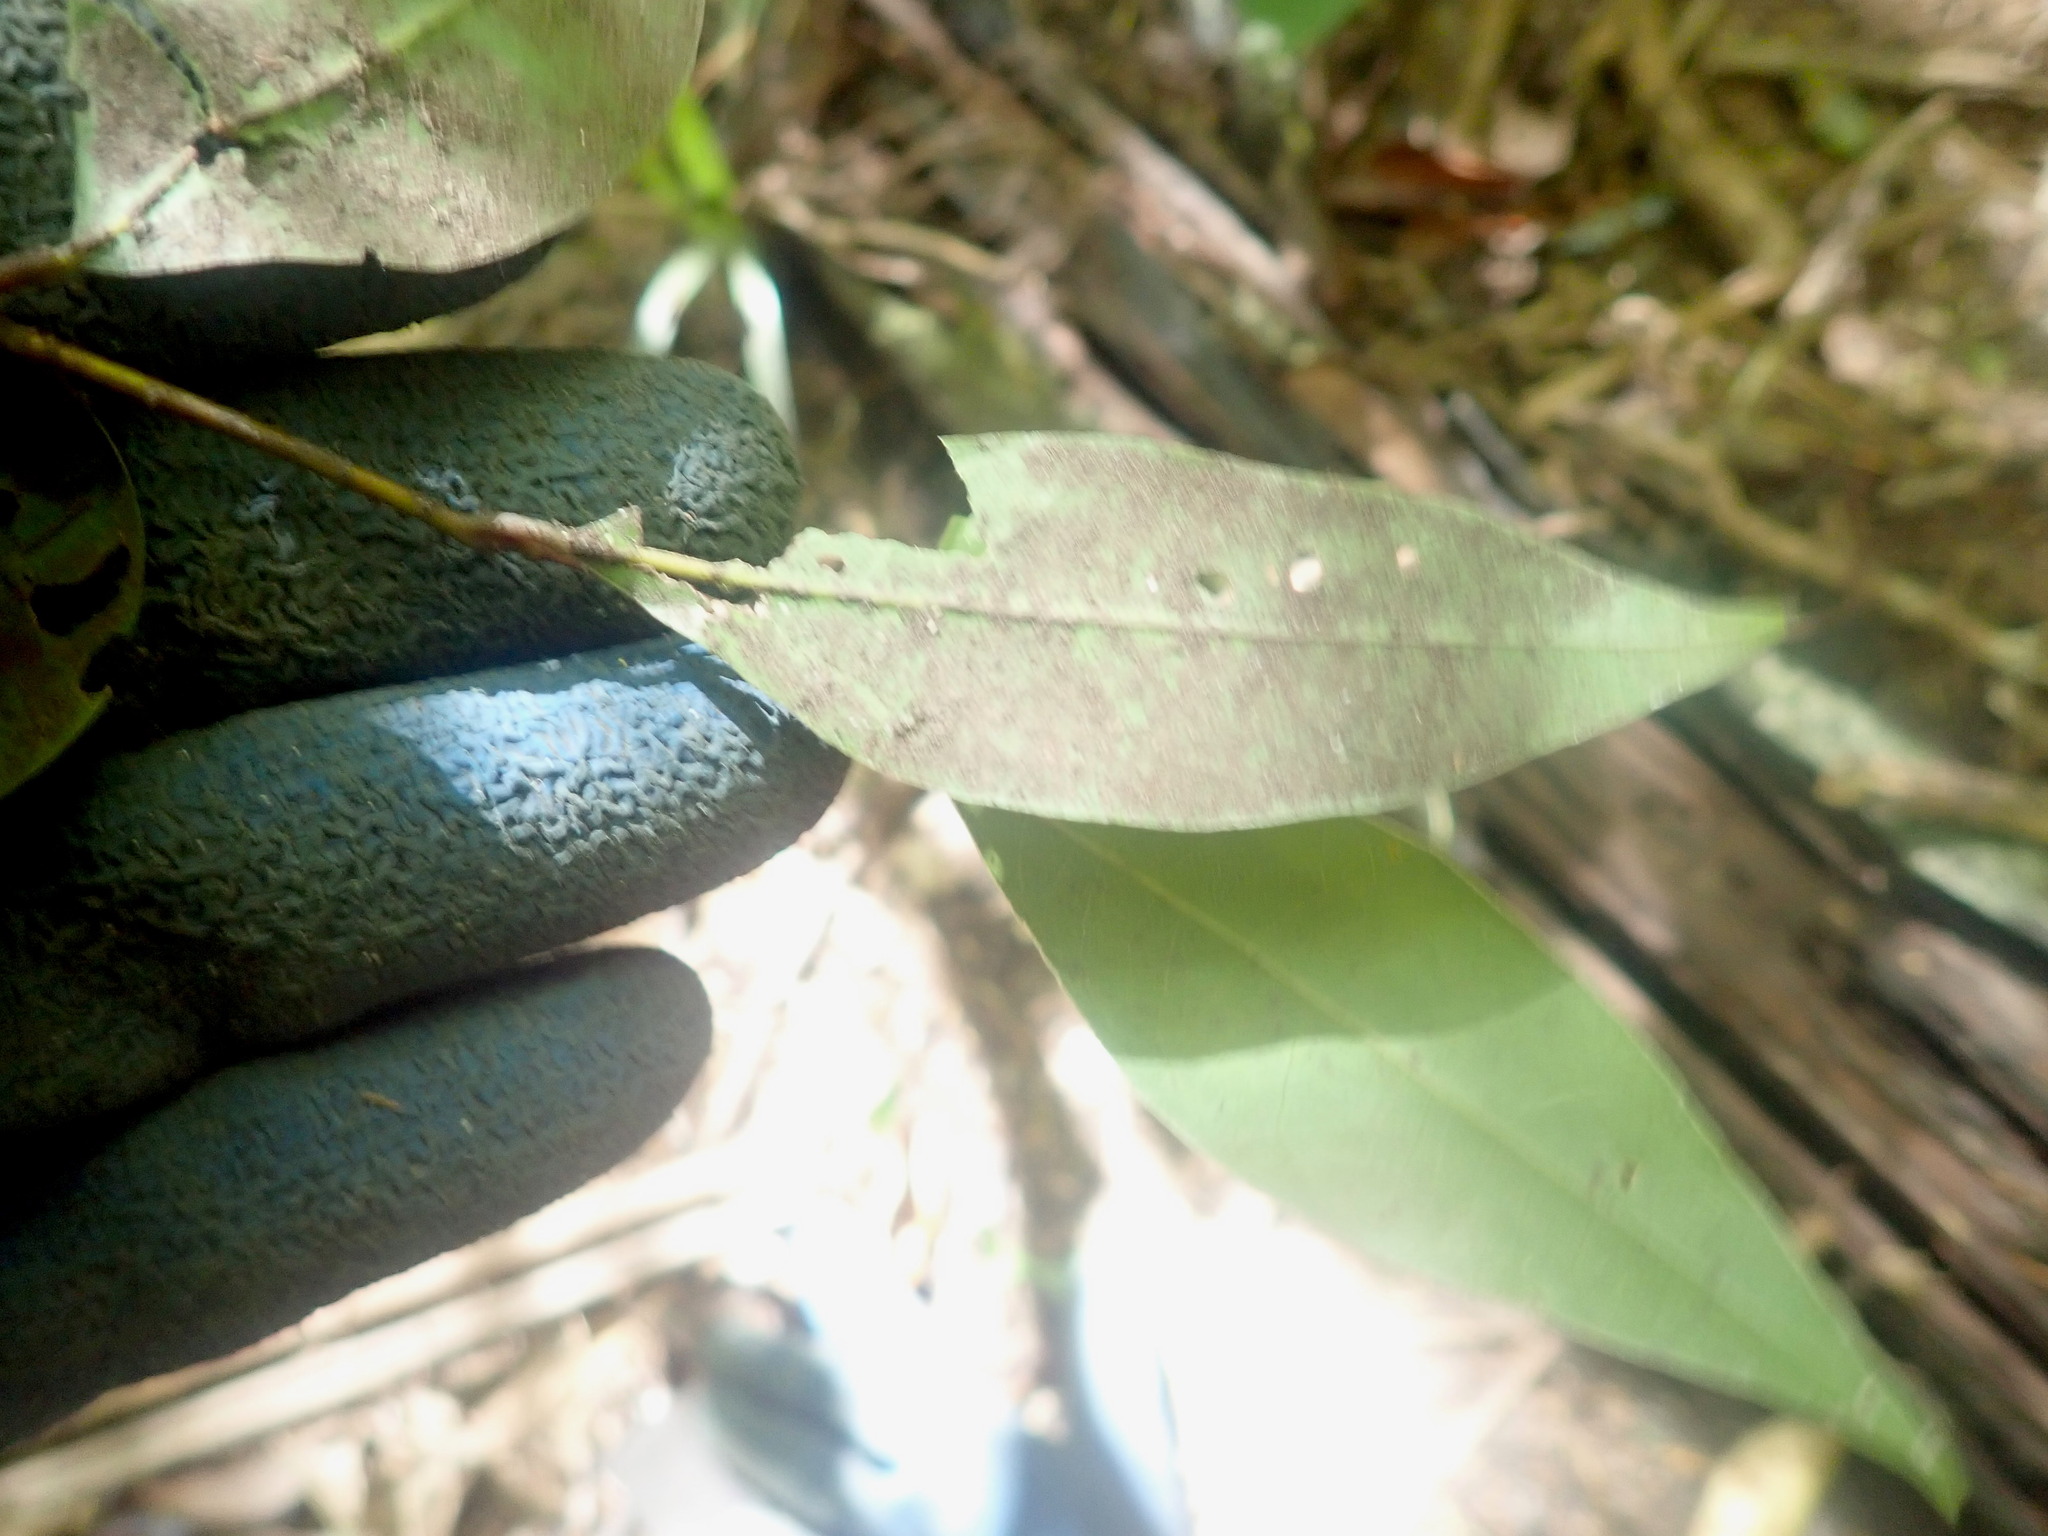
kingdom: Plantae
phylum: Tracheophyta
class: Magnoliopsida
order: Laurales
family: Lauraceae
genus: Laurus
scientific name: Laurus nobilis
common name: Bay
